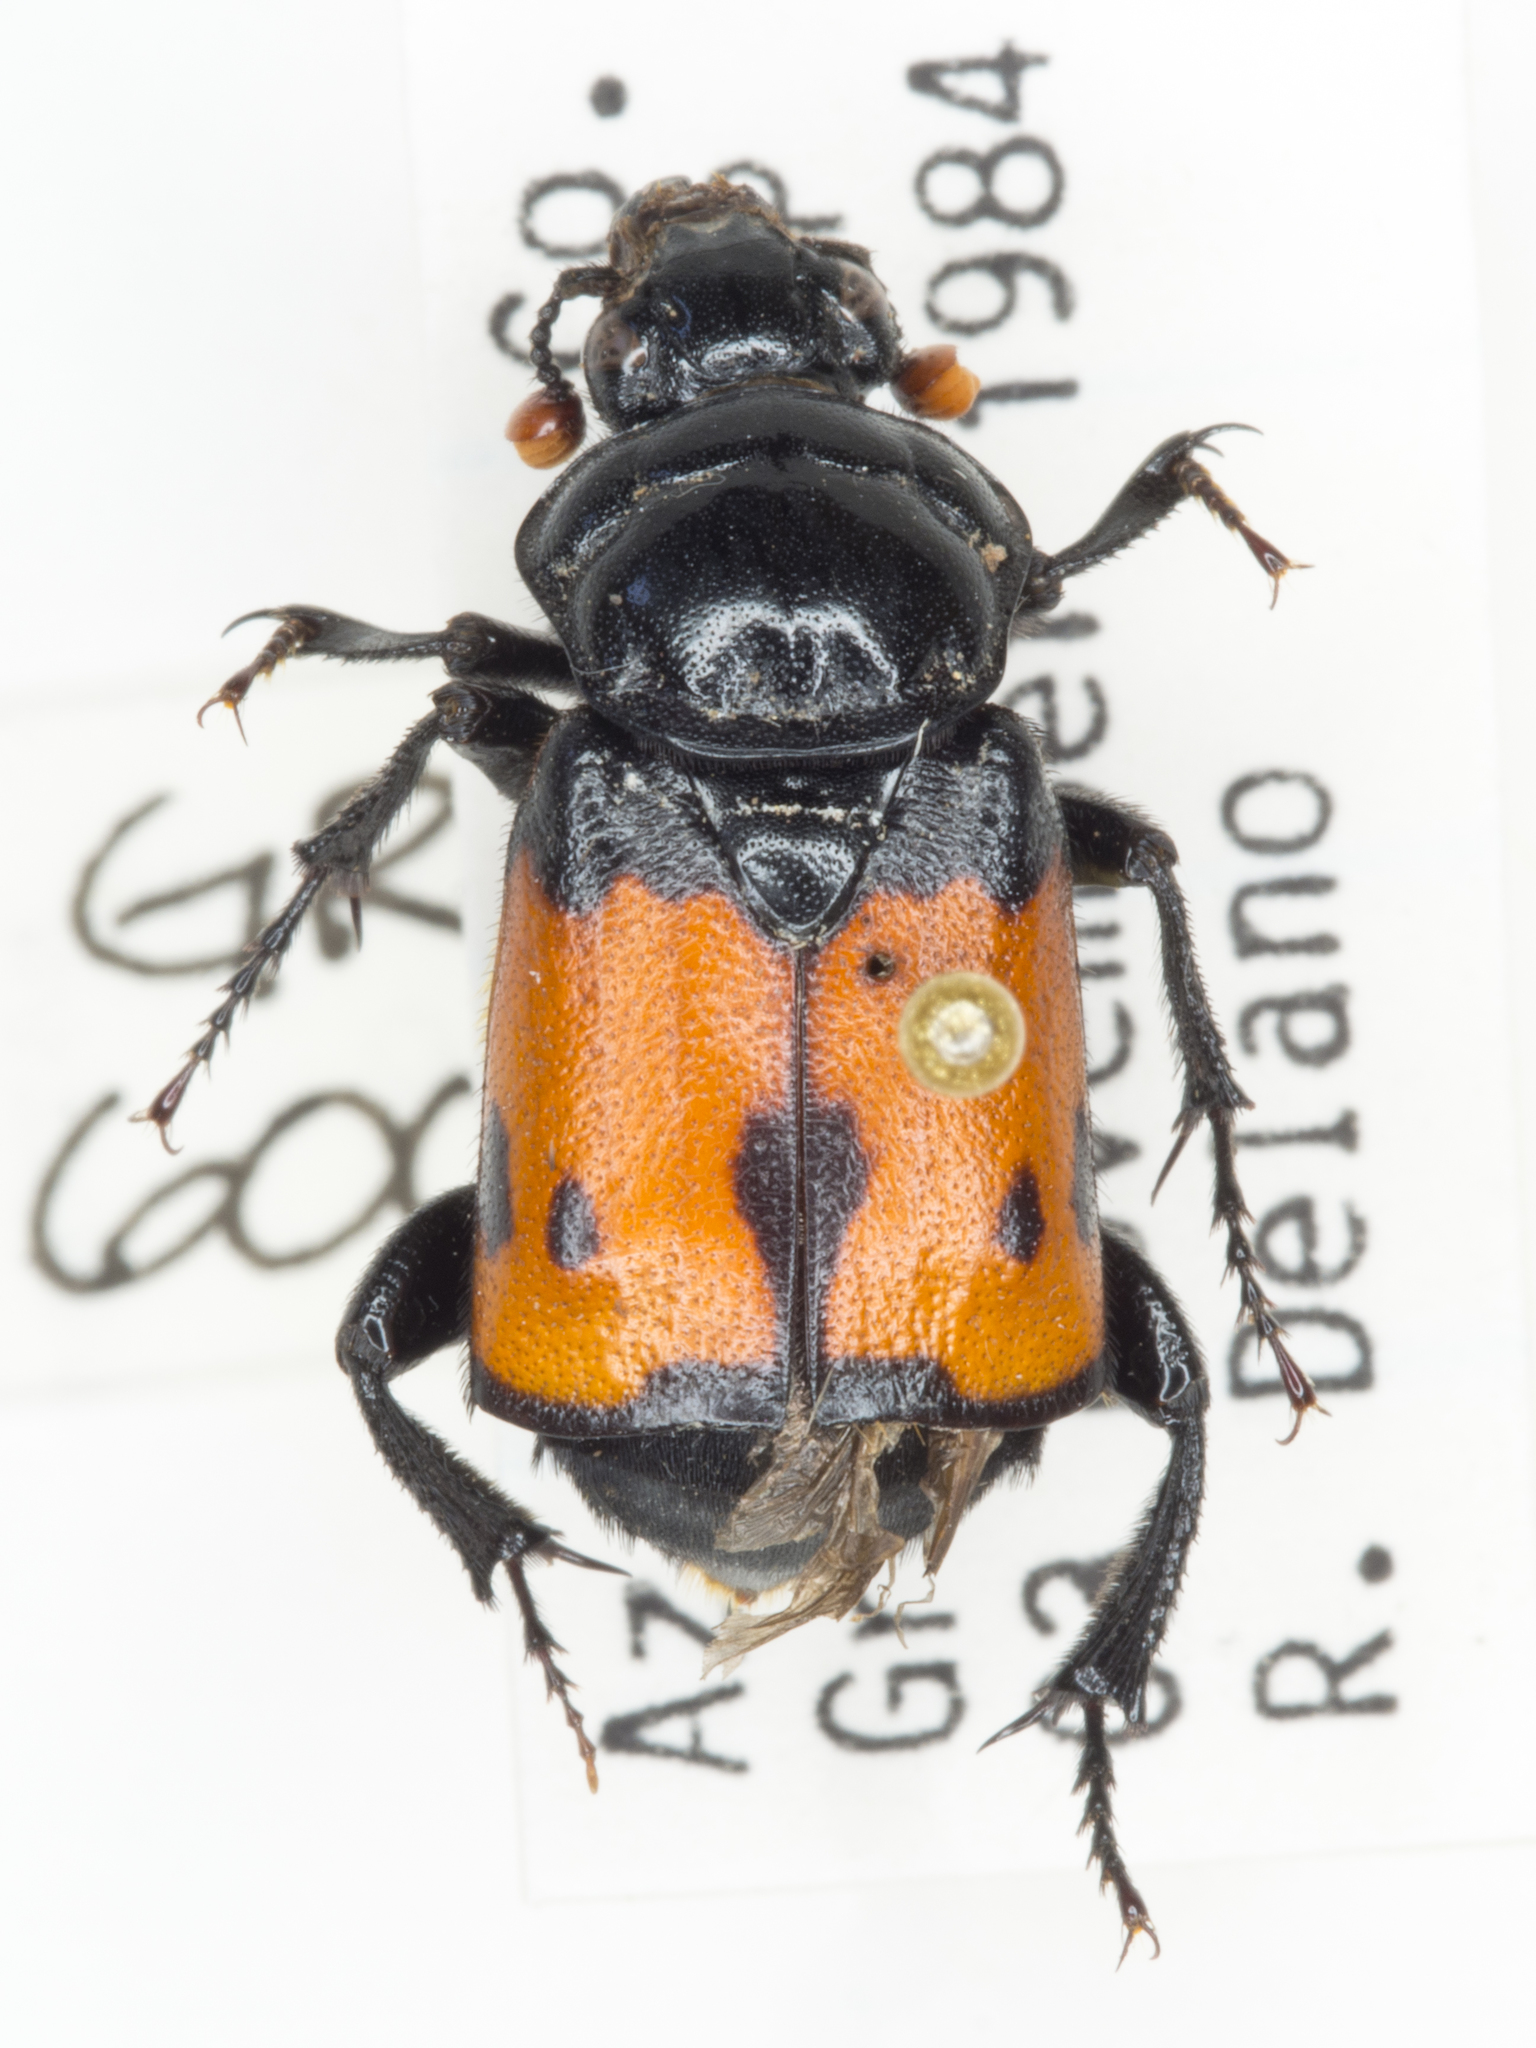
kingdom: Animalia
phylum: Arthropoda
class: Insecta
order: Coleoptera
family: Staphylinidae
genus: Nicrophorus
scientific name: Nicrophorus guttula
